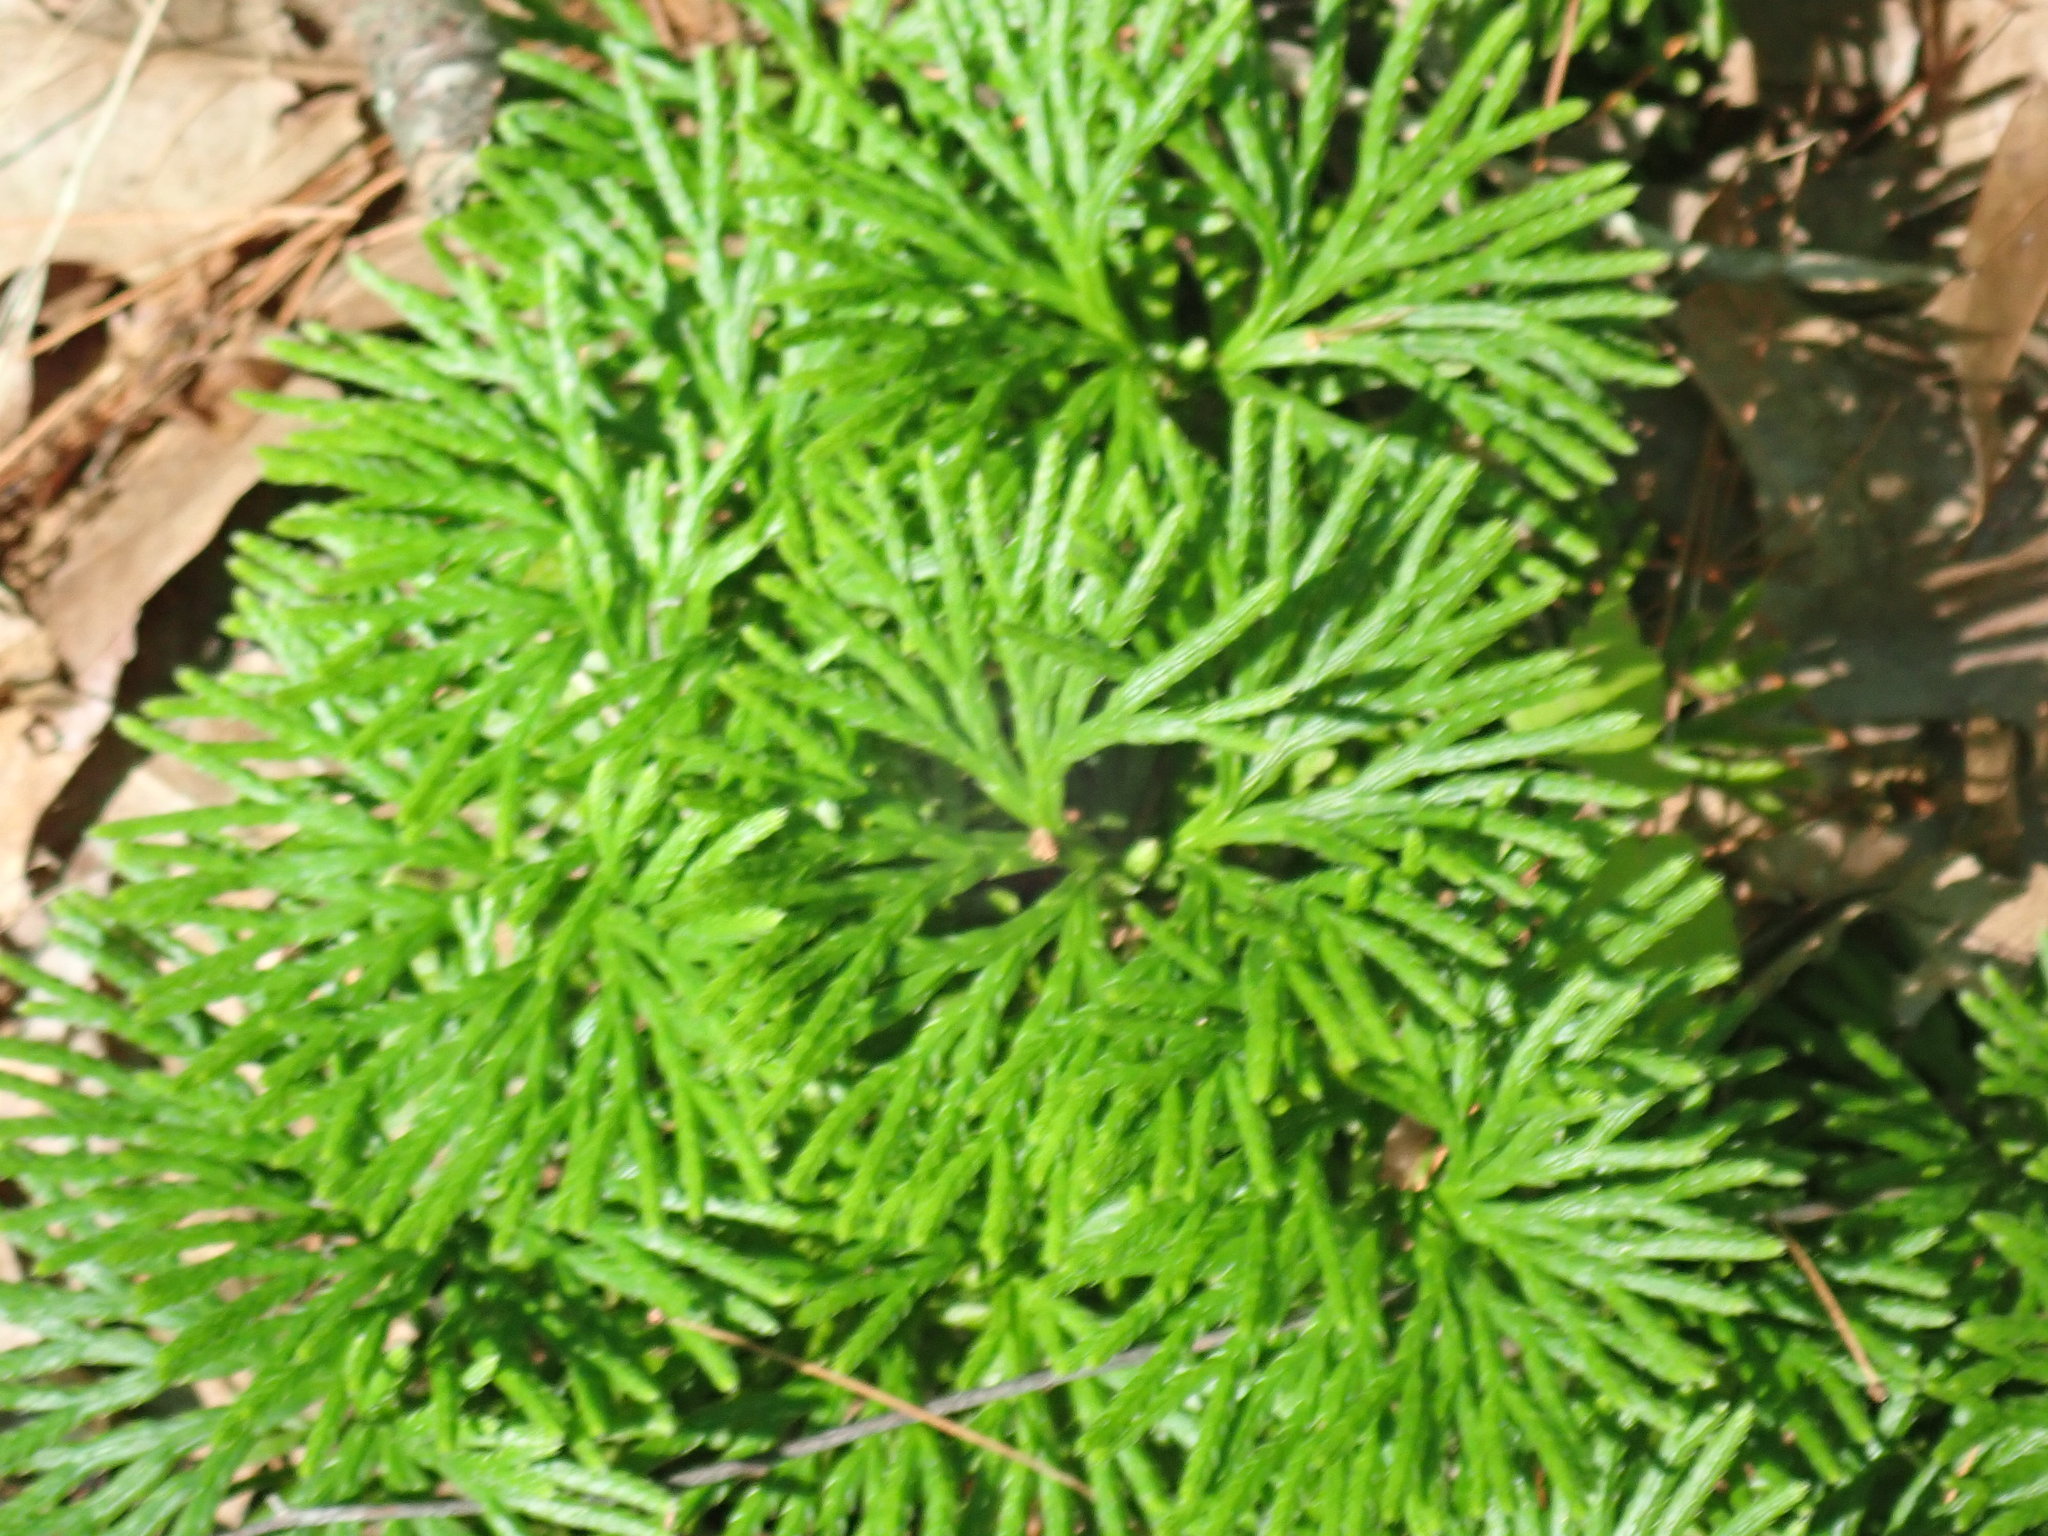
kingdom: Plantae
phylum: Tracheophyta
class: Lycopodiopsida
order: Lycopodiales
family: Lycopodiaceae
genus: Diphasiastrum
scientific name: Diphasiastrum digitatum
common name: Southern running-pine
